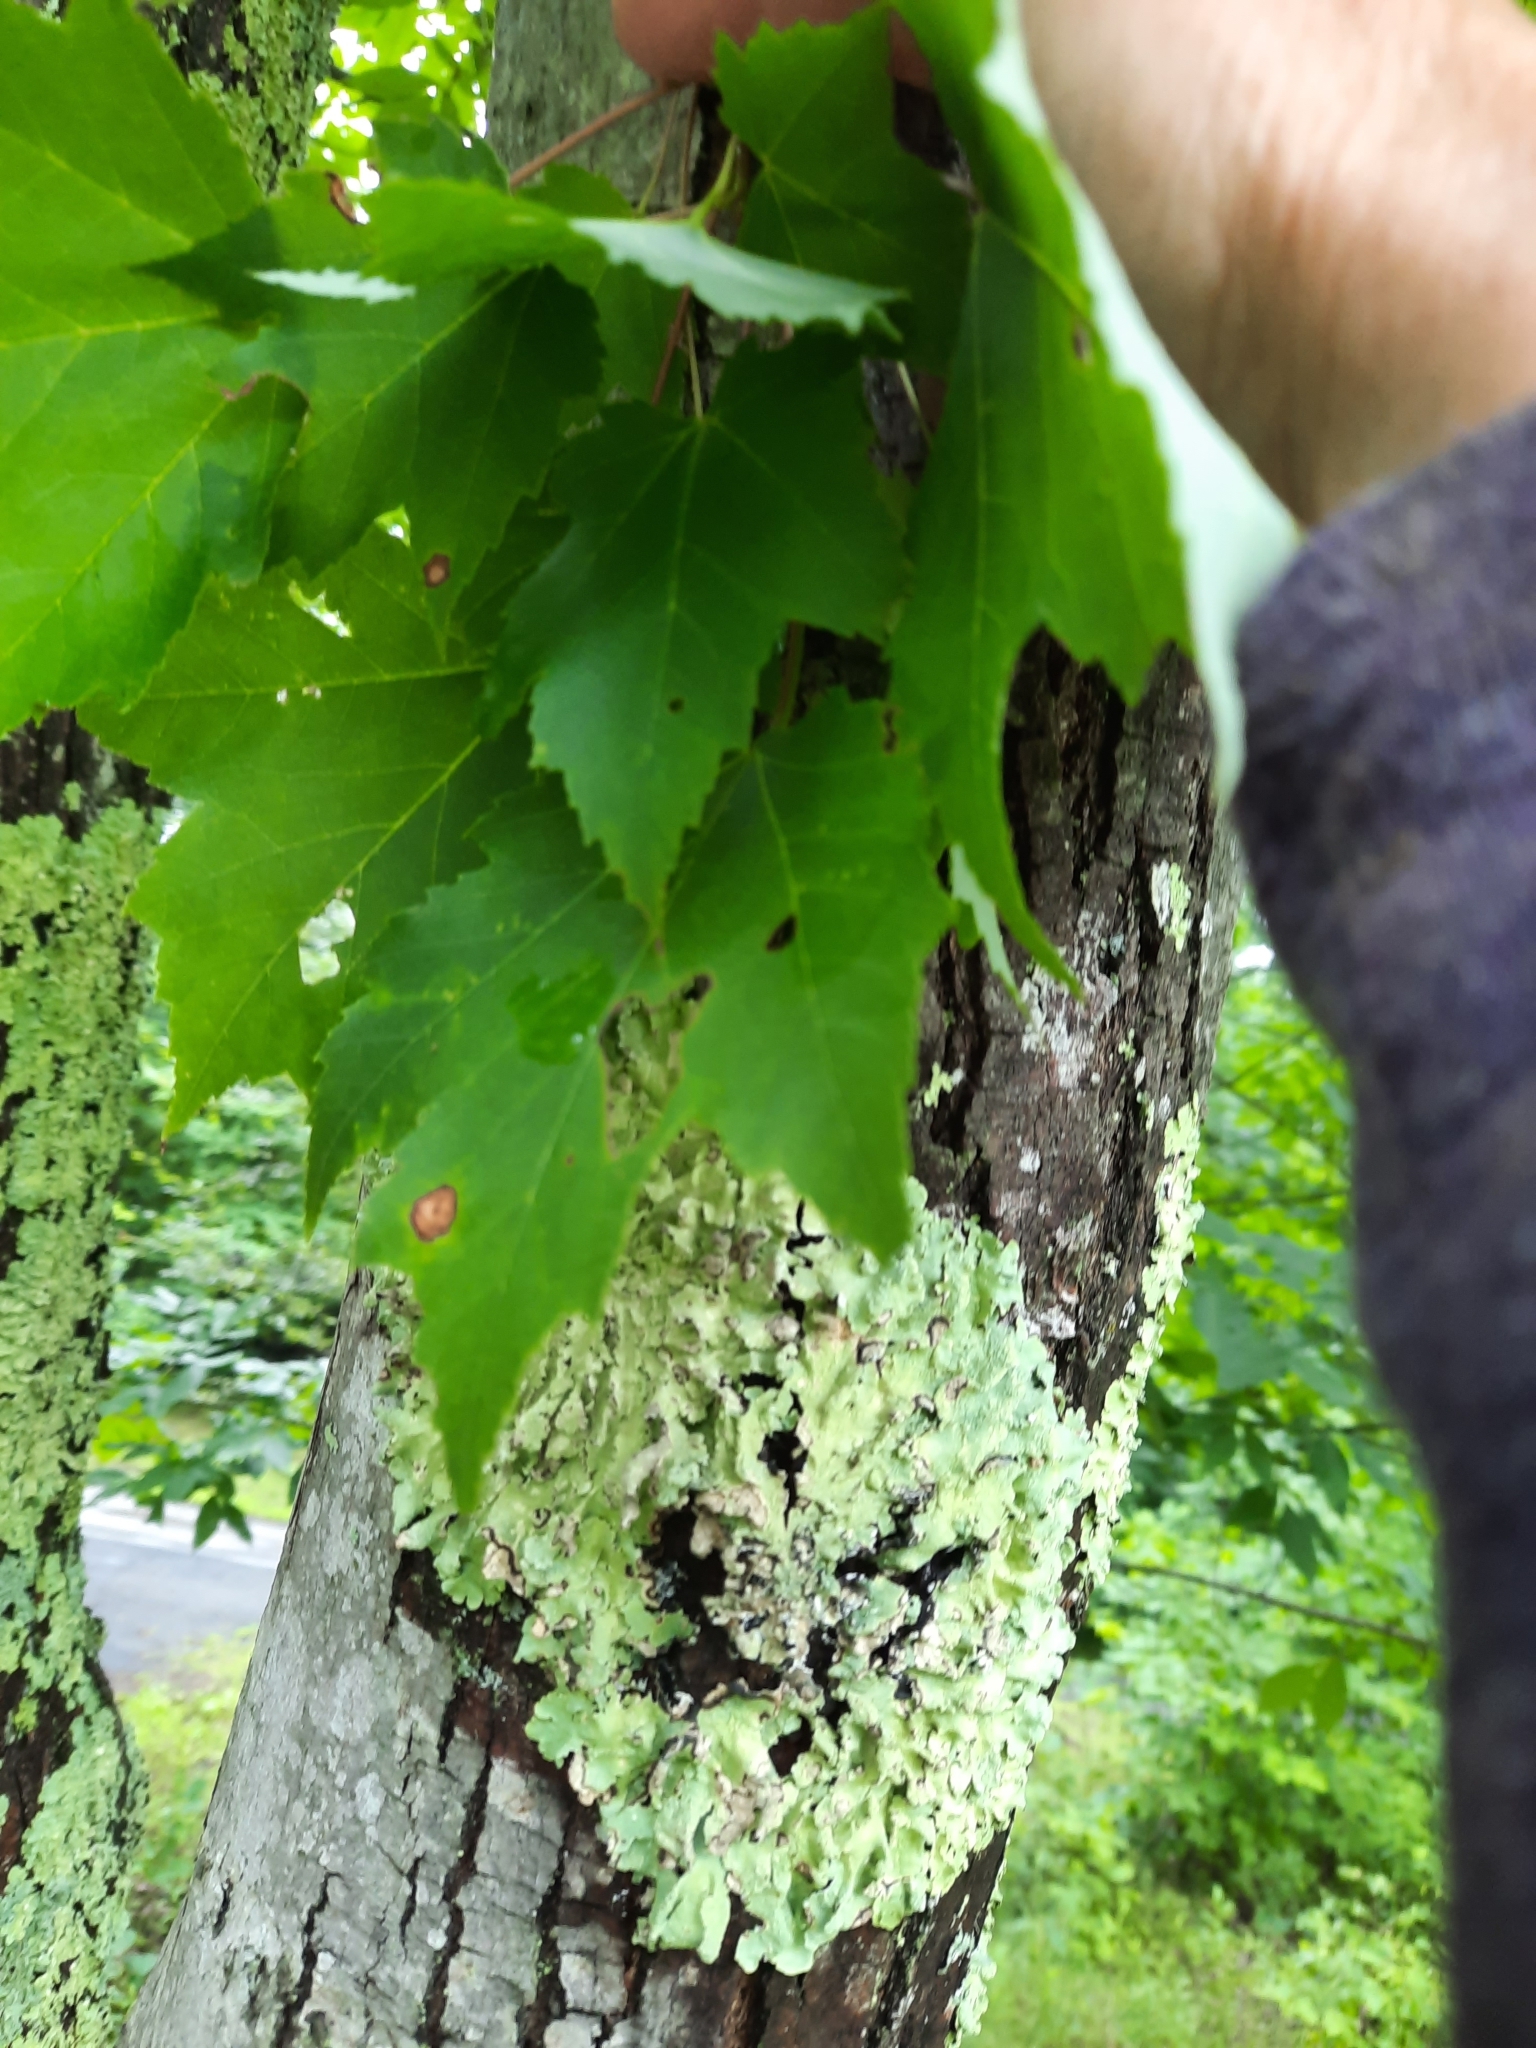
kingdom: Plantae
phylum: Tracheophyta
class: Magnoliopsida
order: Sapindales
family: Sapindaceae
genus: Acer
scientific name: Acer rubrum
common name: Red maple
